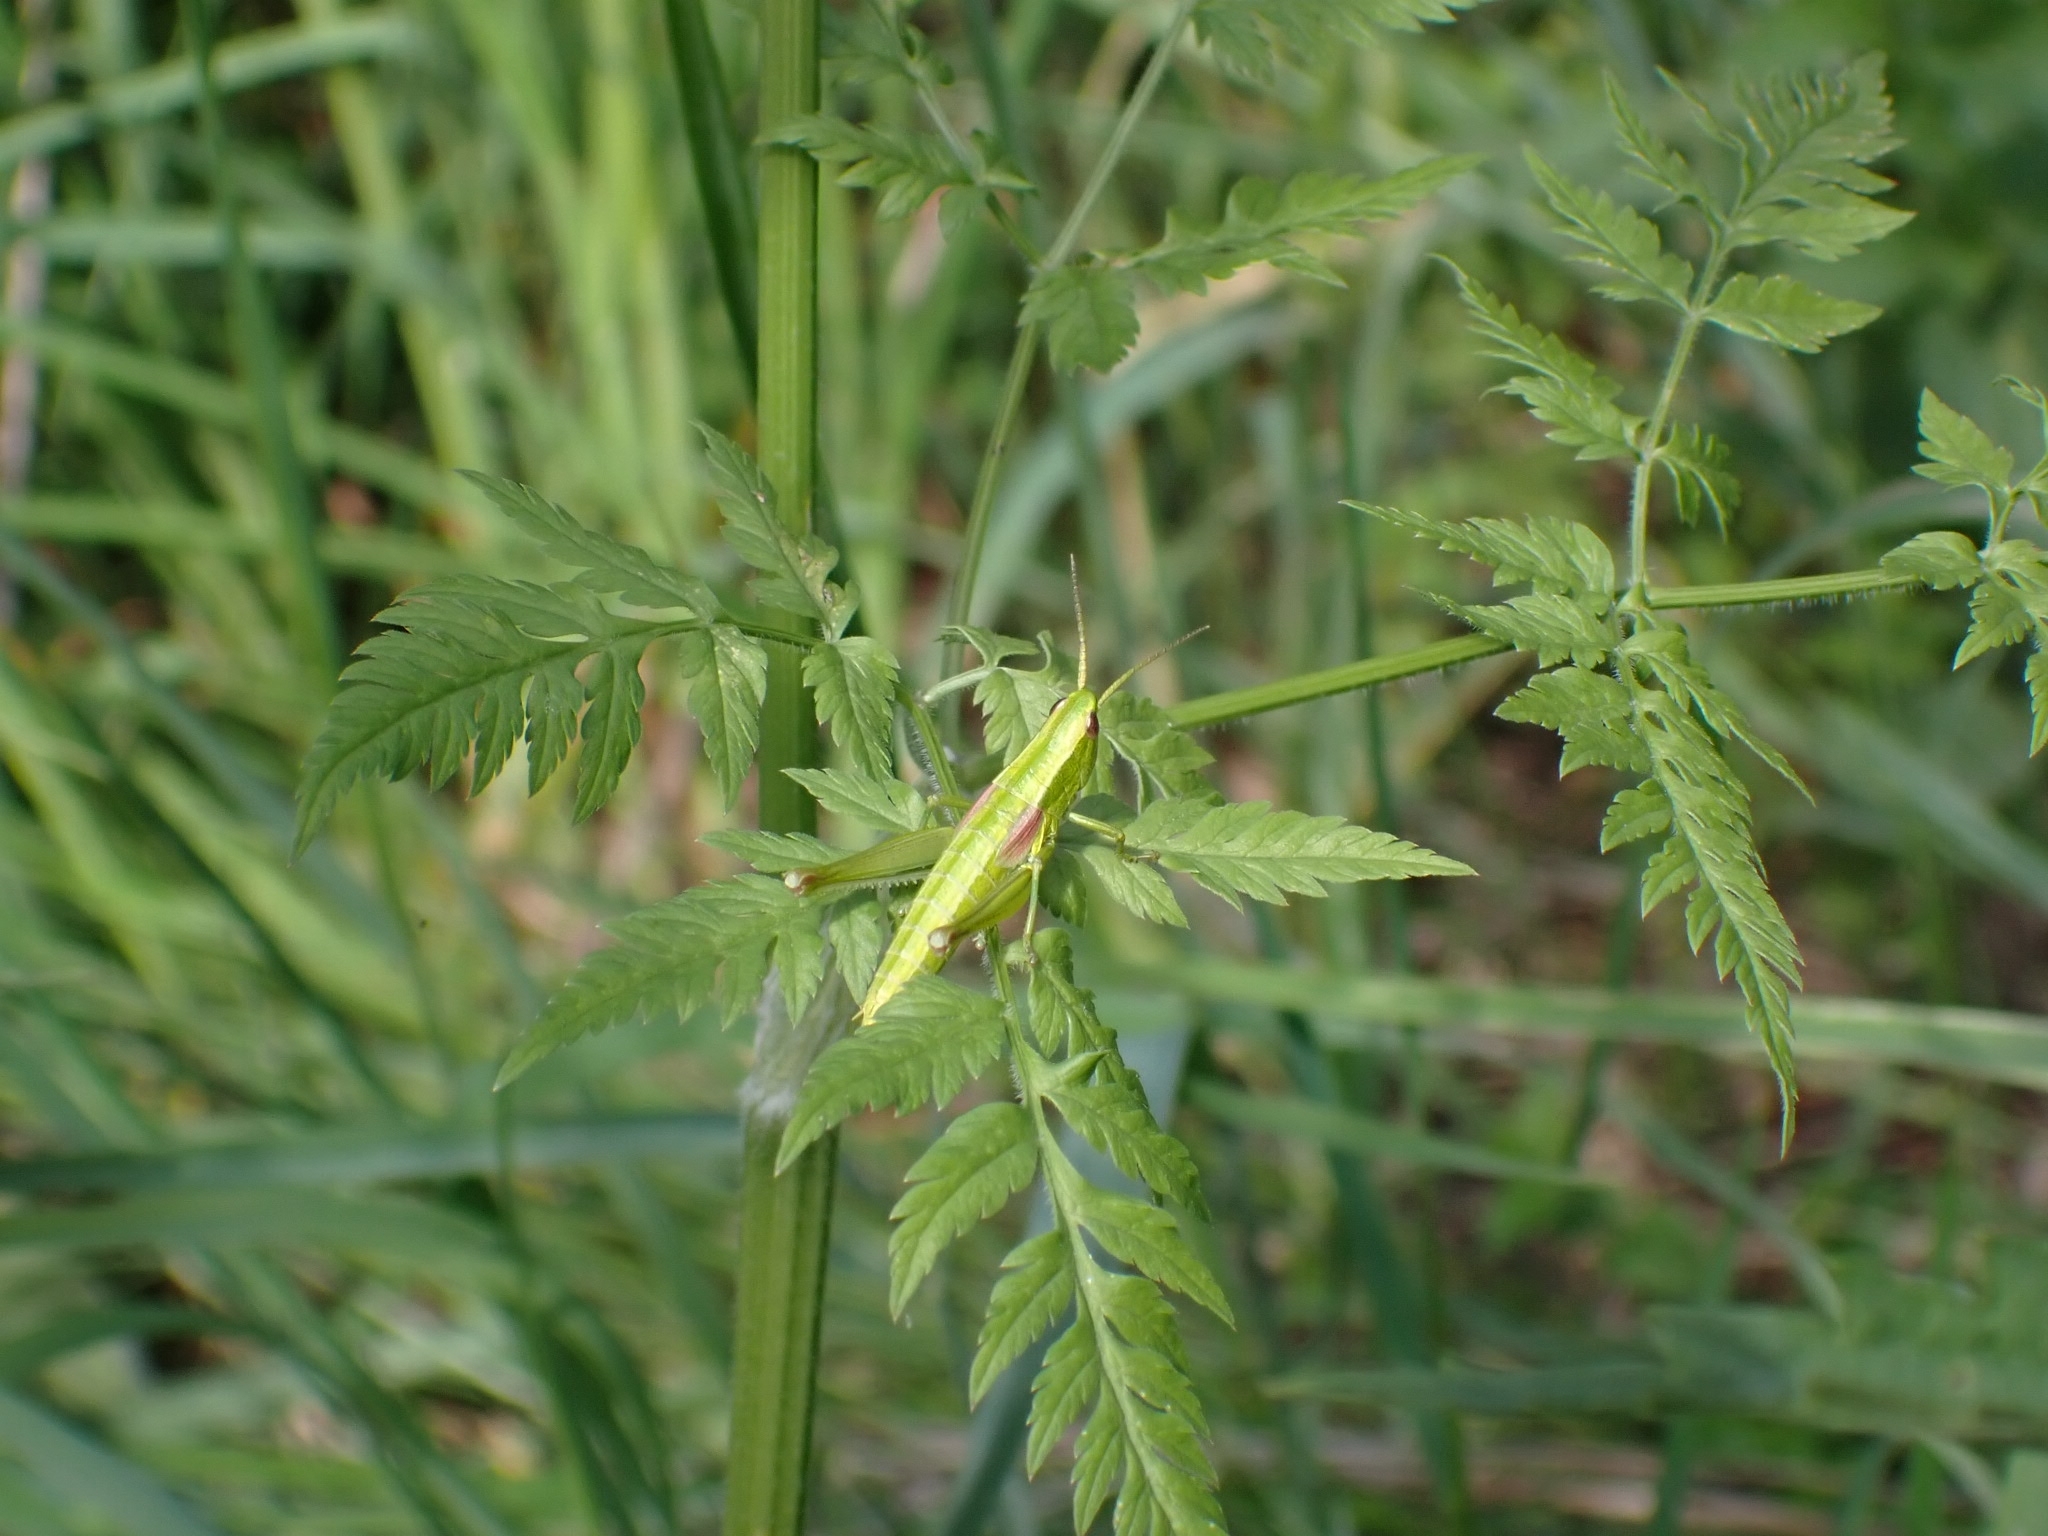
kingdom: Animalia
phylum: Arthropoda
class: Insecta
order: Orthoptera
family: Acrididae
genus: Euthystira
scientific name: Euthystira brachyptera
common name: Small gold grasshopper
